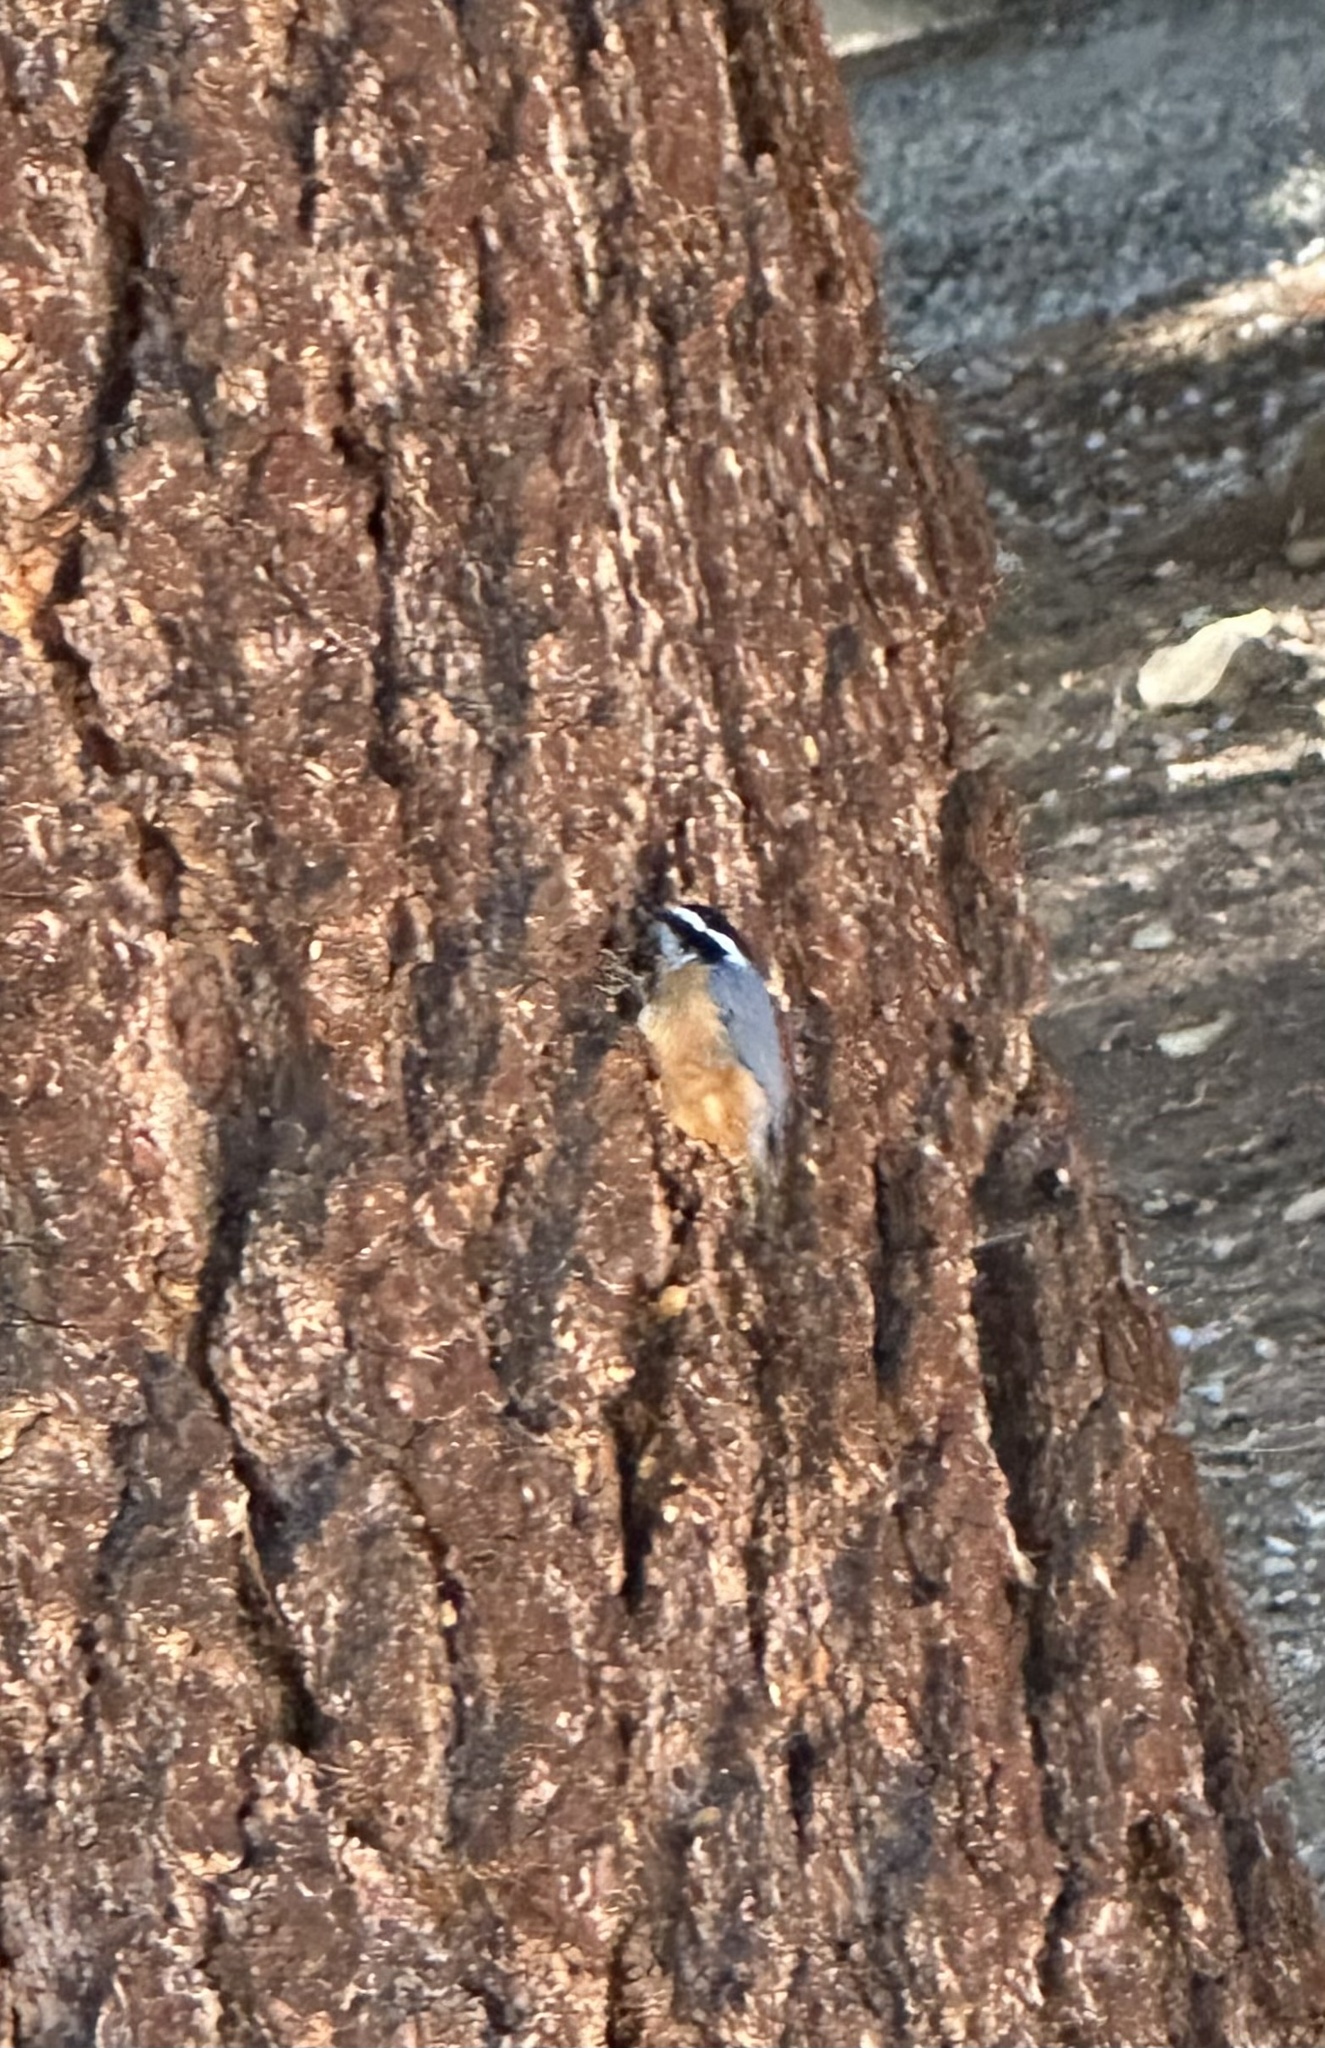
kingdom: Animalia
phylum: Chordata
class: Aves
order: Passeriformes
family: Sittidae
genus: Sitta
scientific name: Sitta canadensis
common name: Red-breasted nuthatch
